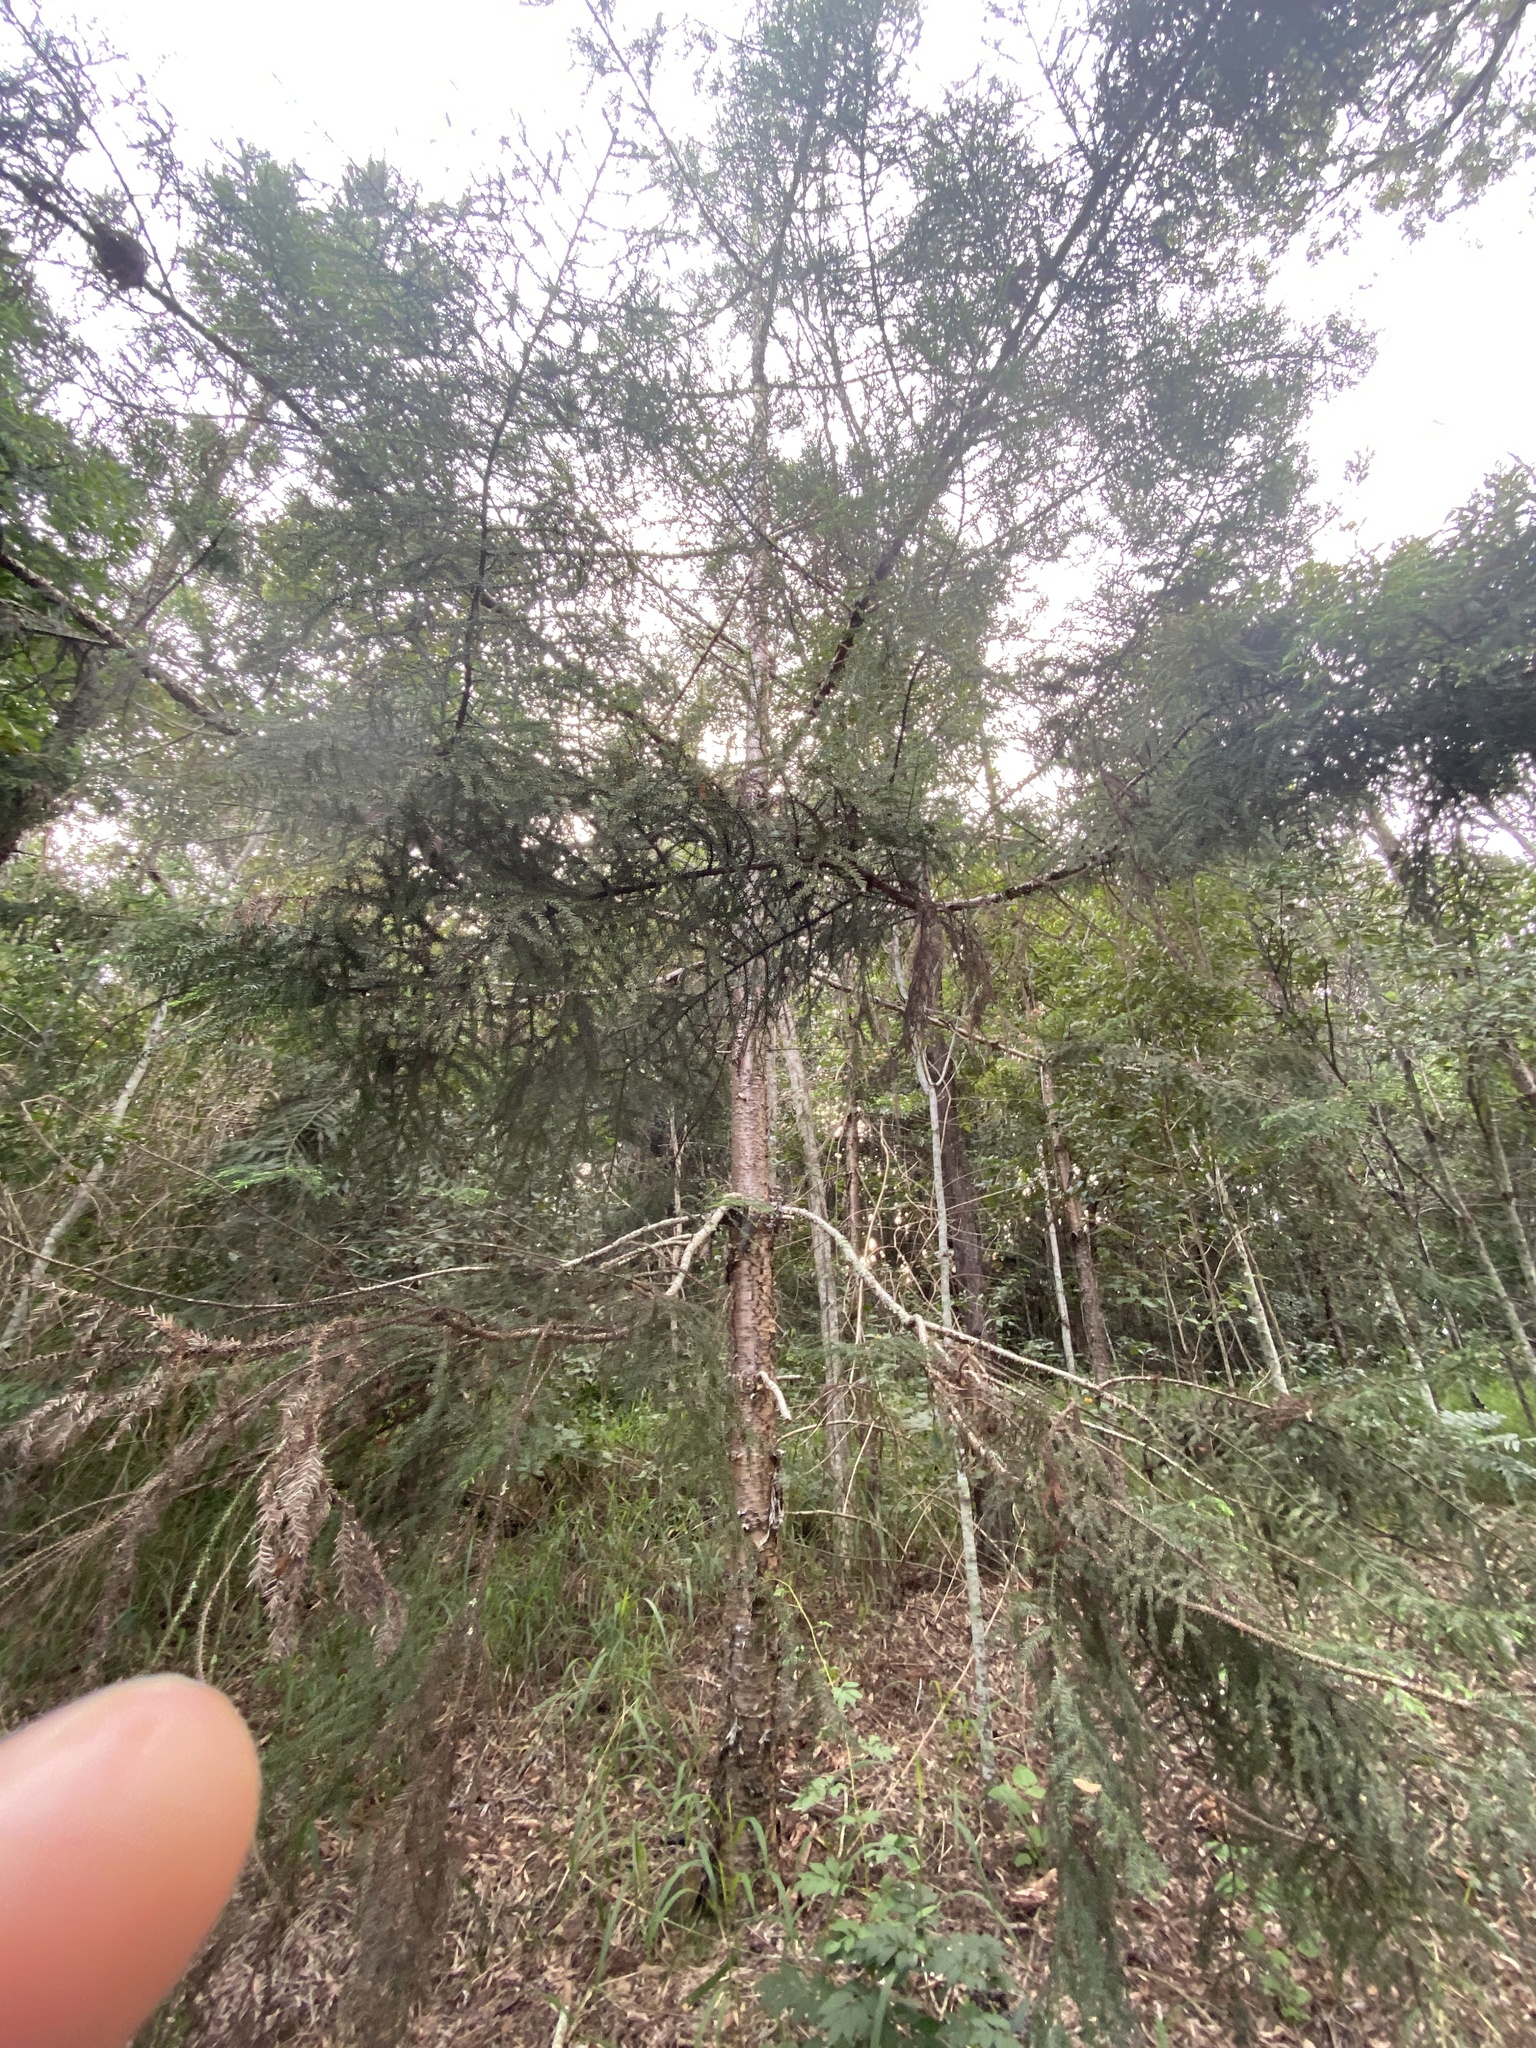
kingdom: Plantae
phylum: Tracheophyta
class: Pinopsida
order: Pinales
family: Araucariaceae
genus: Araucaria
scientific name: Araucaria cunninghamii
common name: Colonial pine
